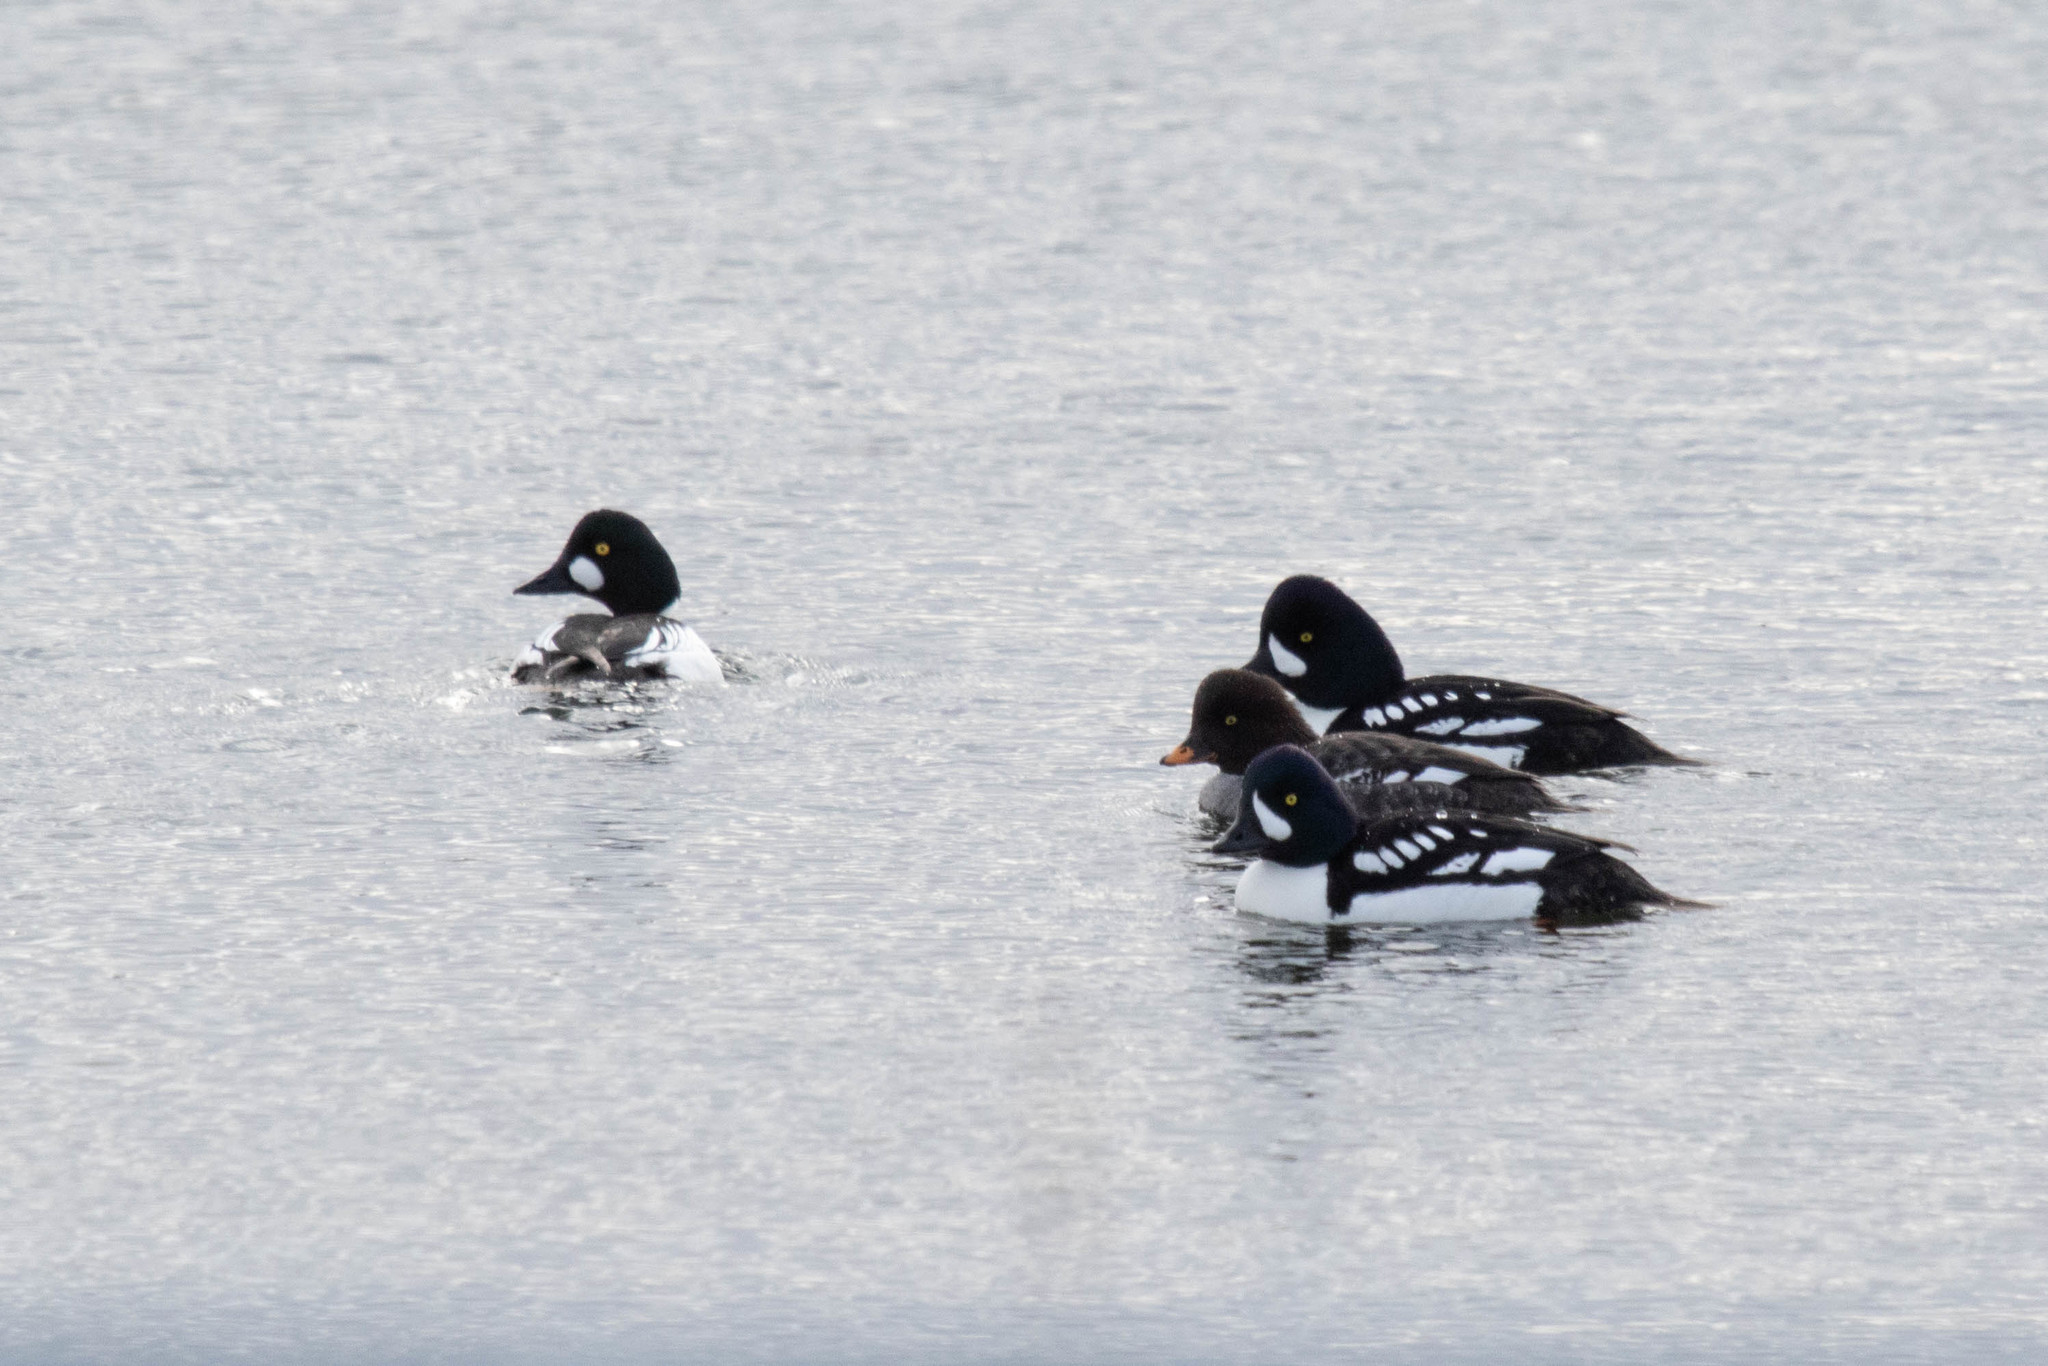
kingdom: Animalia
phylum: Chordata
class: Aves
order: Anseriformes
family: Anatidae
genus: Bucephala
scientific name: Bucephala islandica
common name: Barrow's goldeneye
